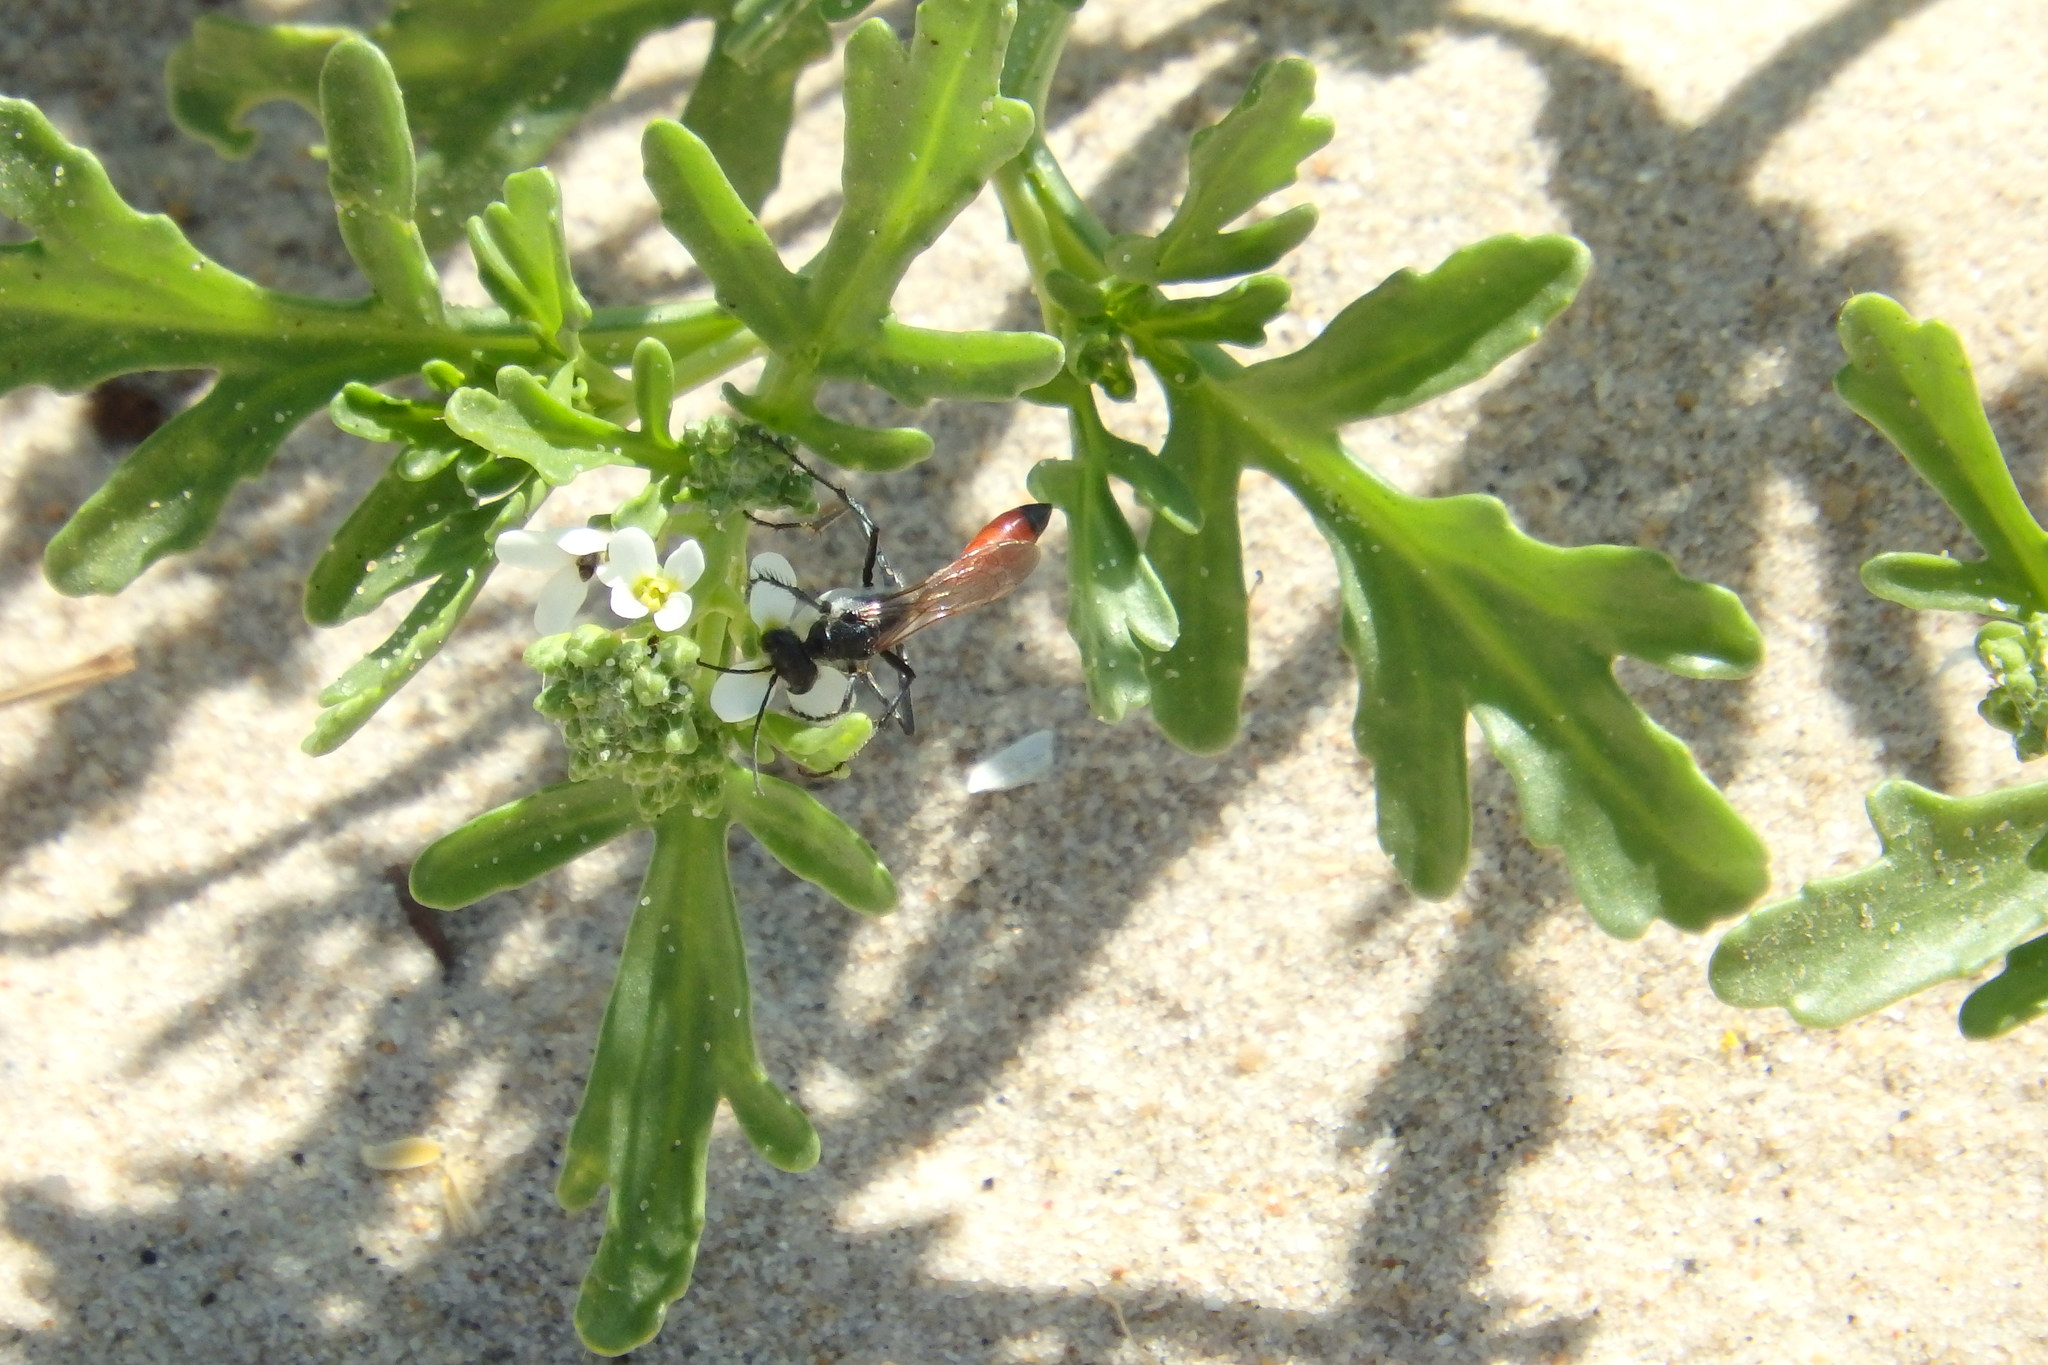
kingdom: Plantae
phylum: Tracheophyta
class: Magnoliopsida
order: Brassicales
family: Brassicaceae
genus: Cakile
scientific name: Cakile maritima
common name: Sea rocket
